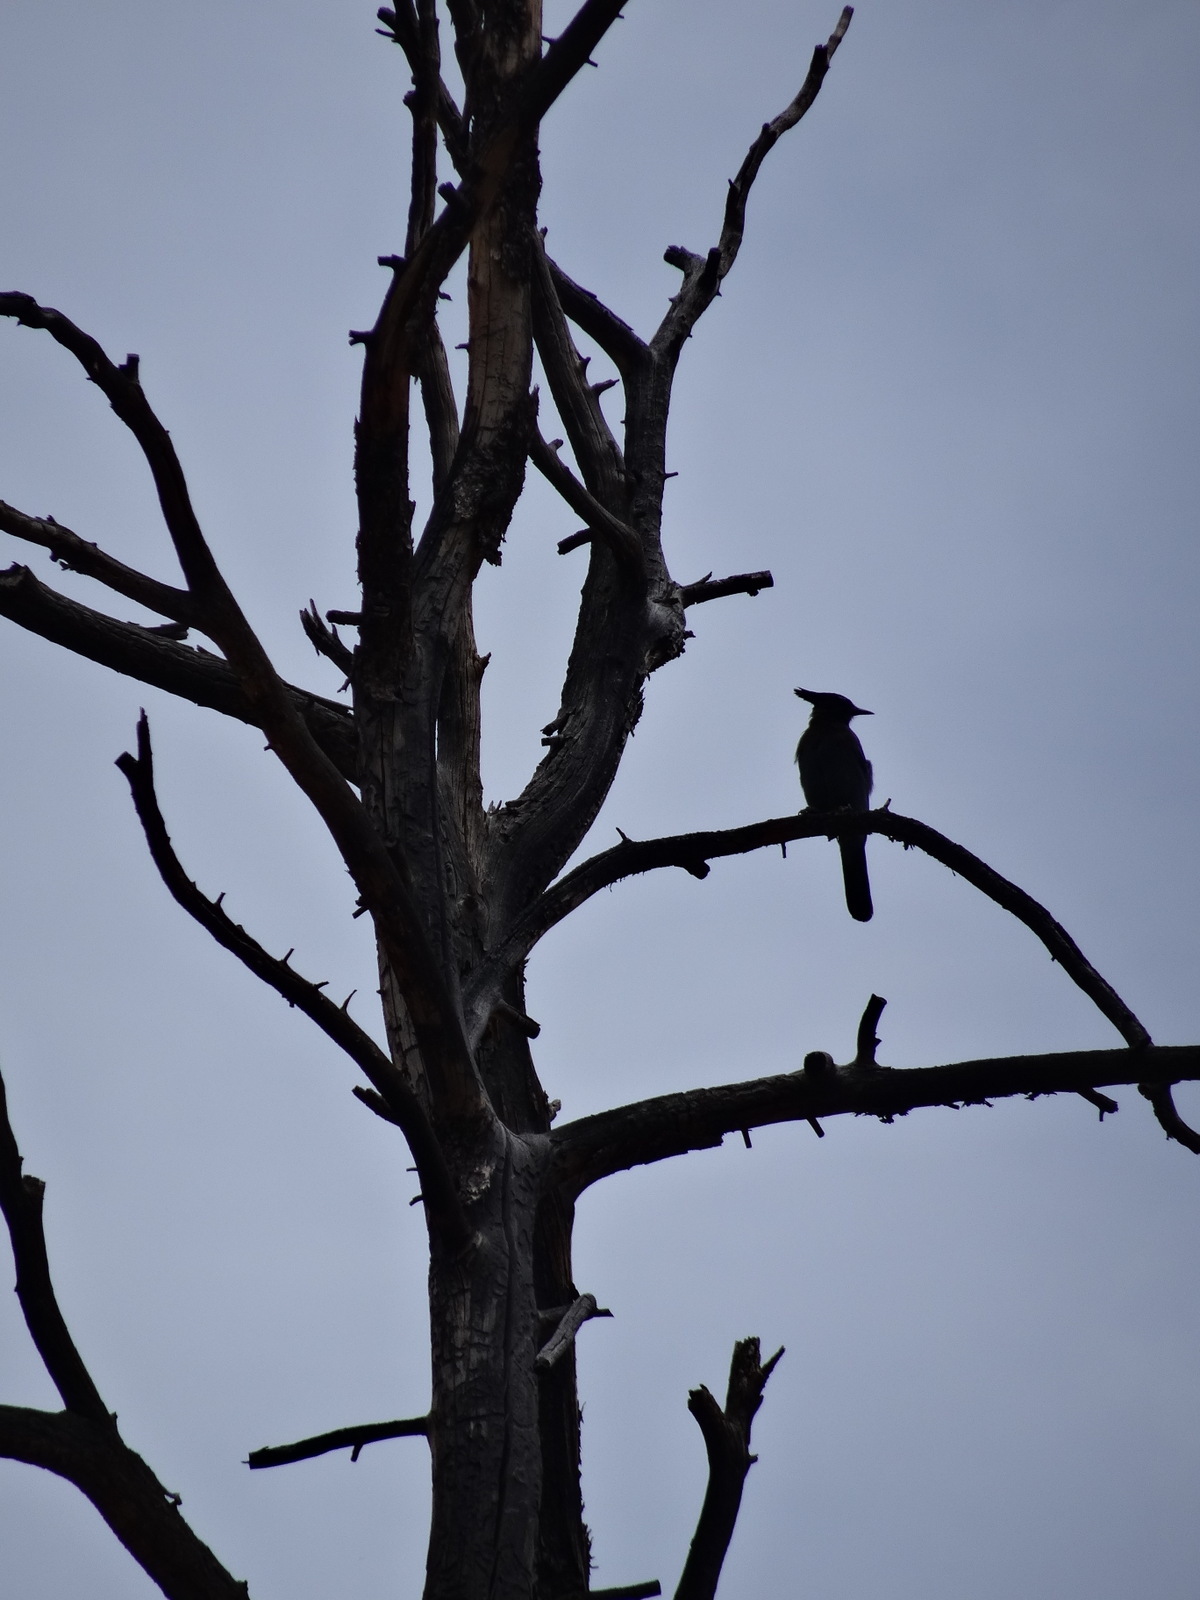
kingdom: Animalia
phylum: Chordata
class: Aves
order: Passeriformes
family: Corvidae
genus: Cyanocitta
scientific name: Cyanocitta stelleri
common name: Steller's jay
